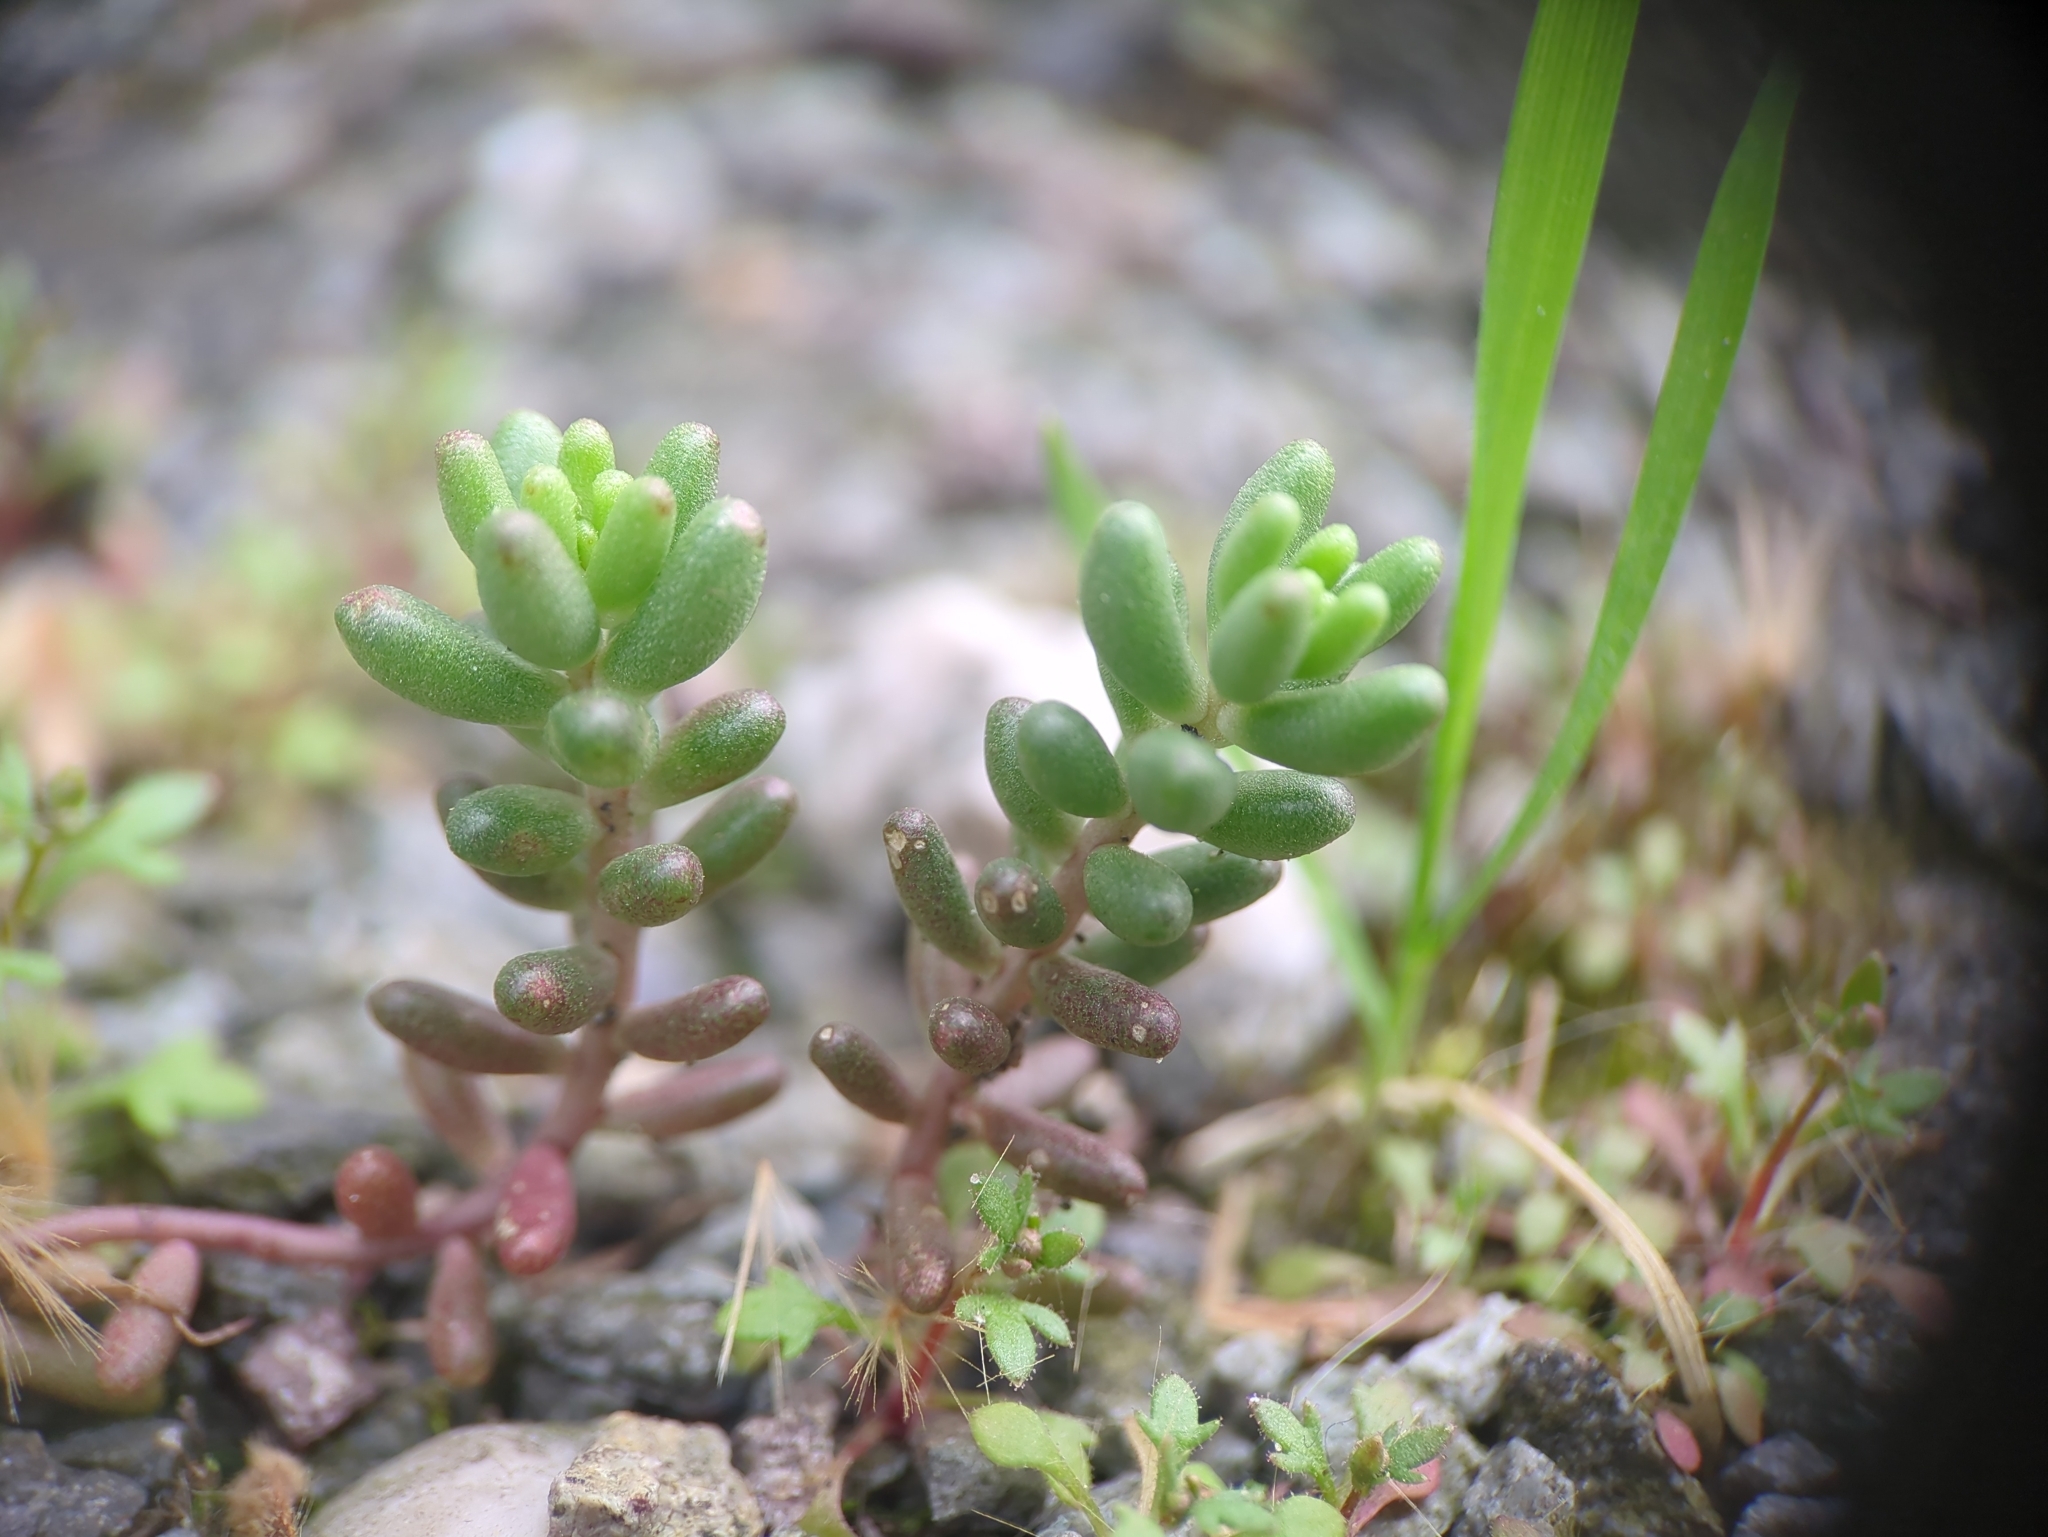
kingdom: Plantae
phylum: Tracheophyta
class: Magnoliopsida
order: Saxifragales
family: Crassulaceae
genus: Sedum
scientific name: Sedum album
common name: White stonecrop
